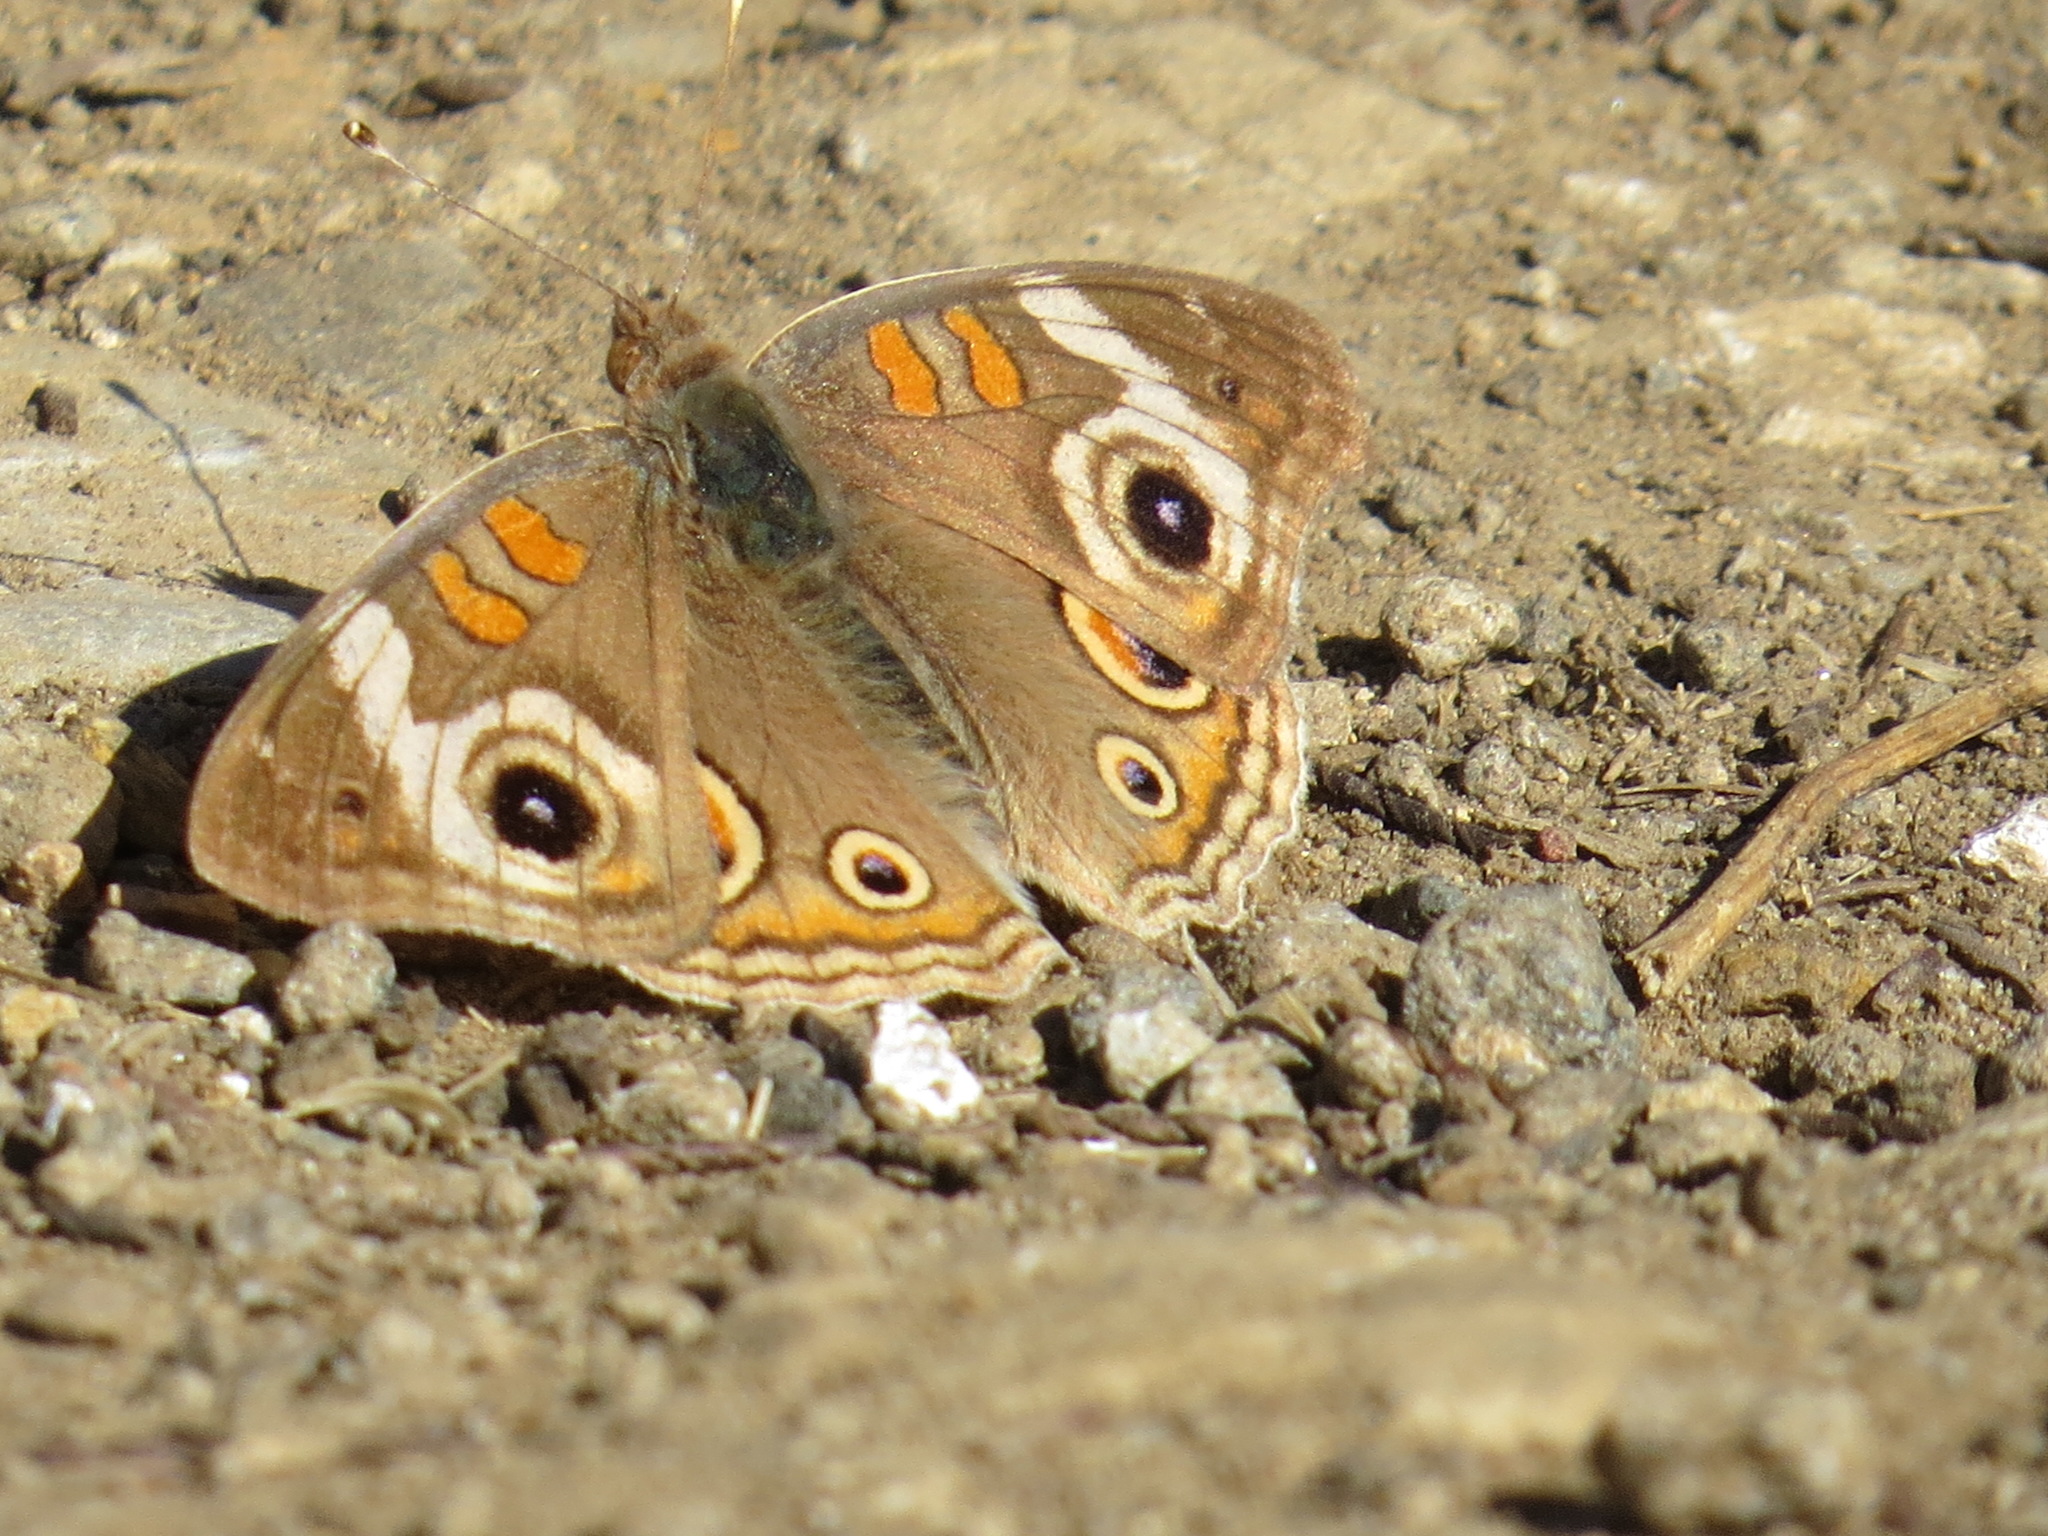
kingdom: Animalia
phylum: Arthropoda
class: Insecta
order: Lepidoptera
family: Nymphalidae
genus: Junonia
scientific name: Junonia grisea
